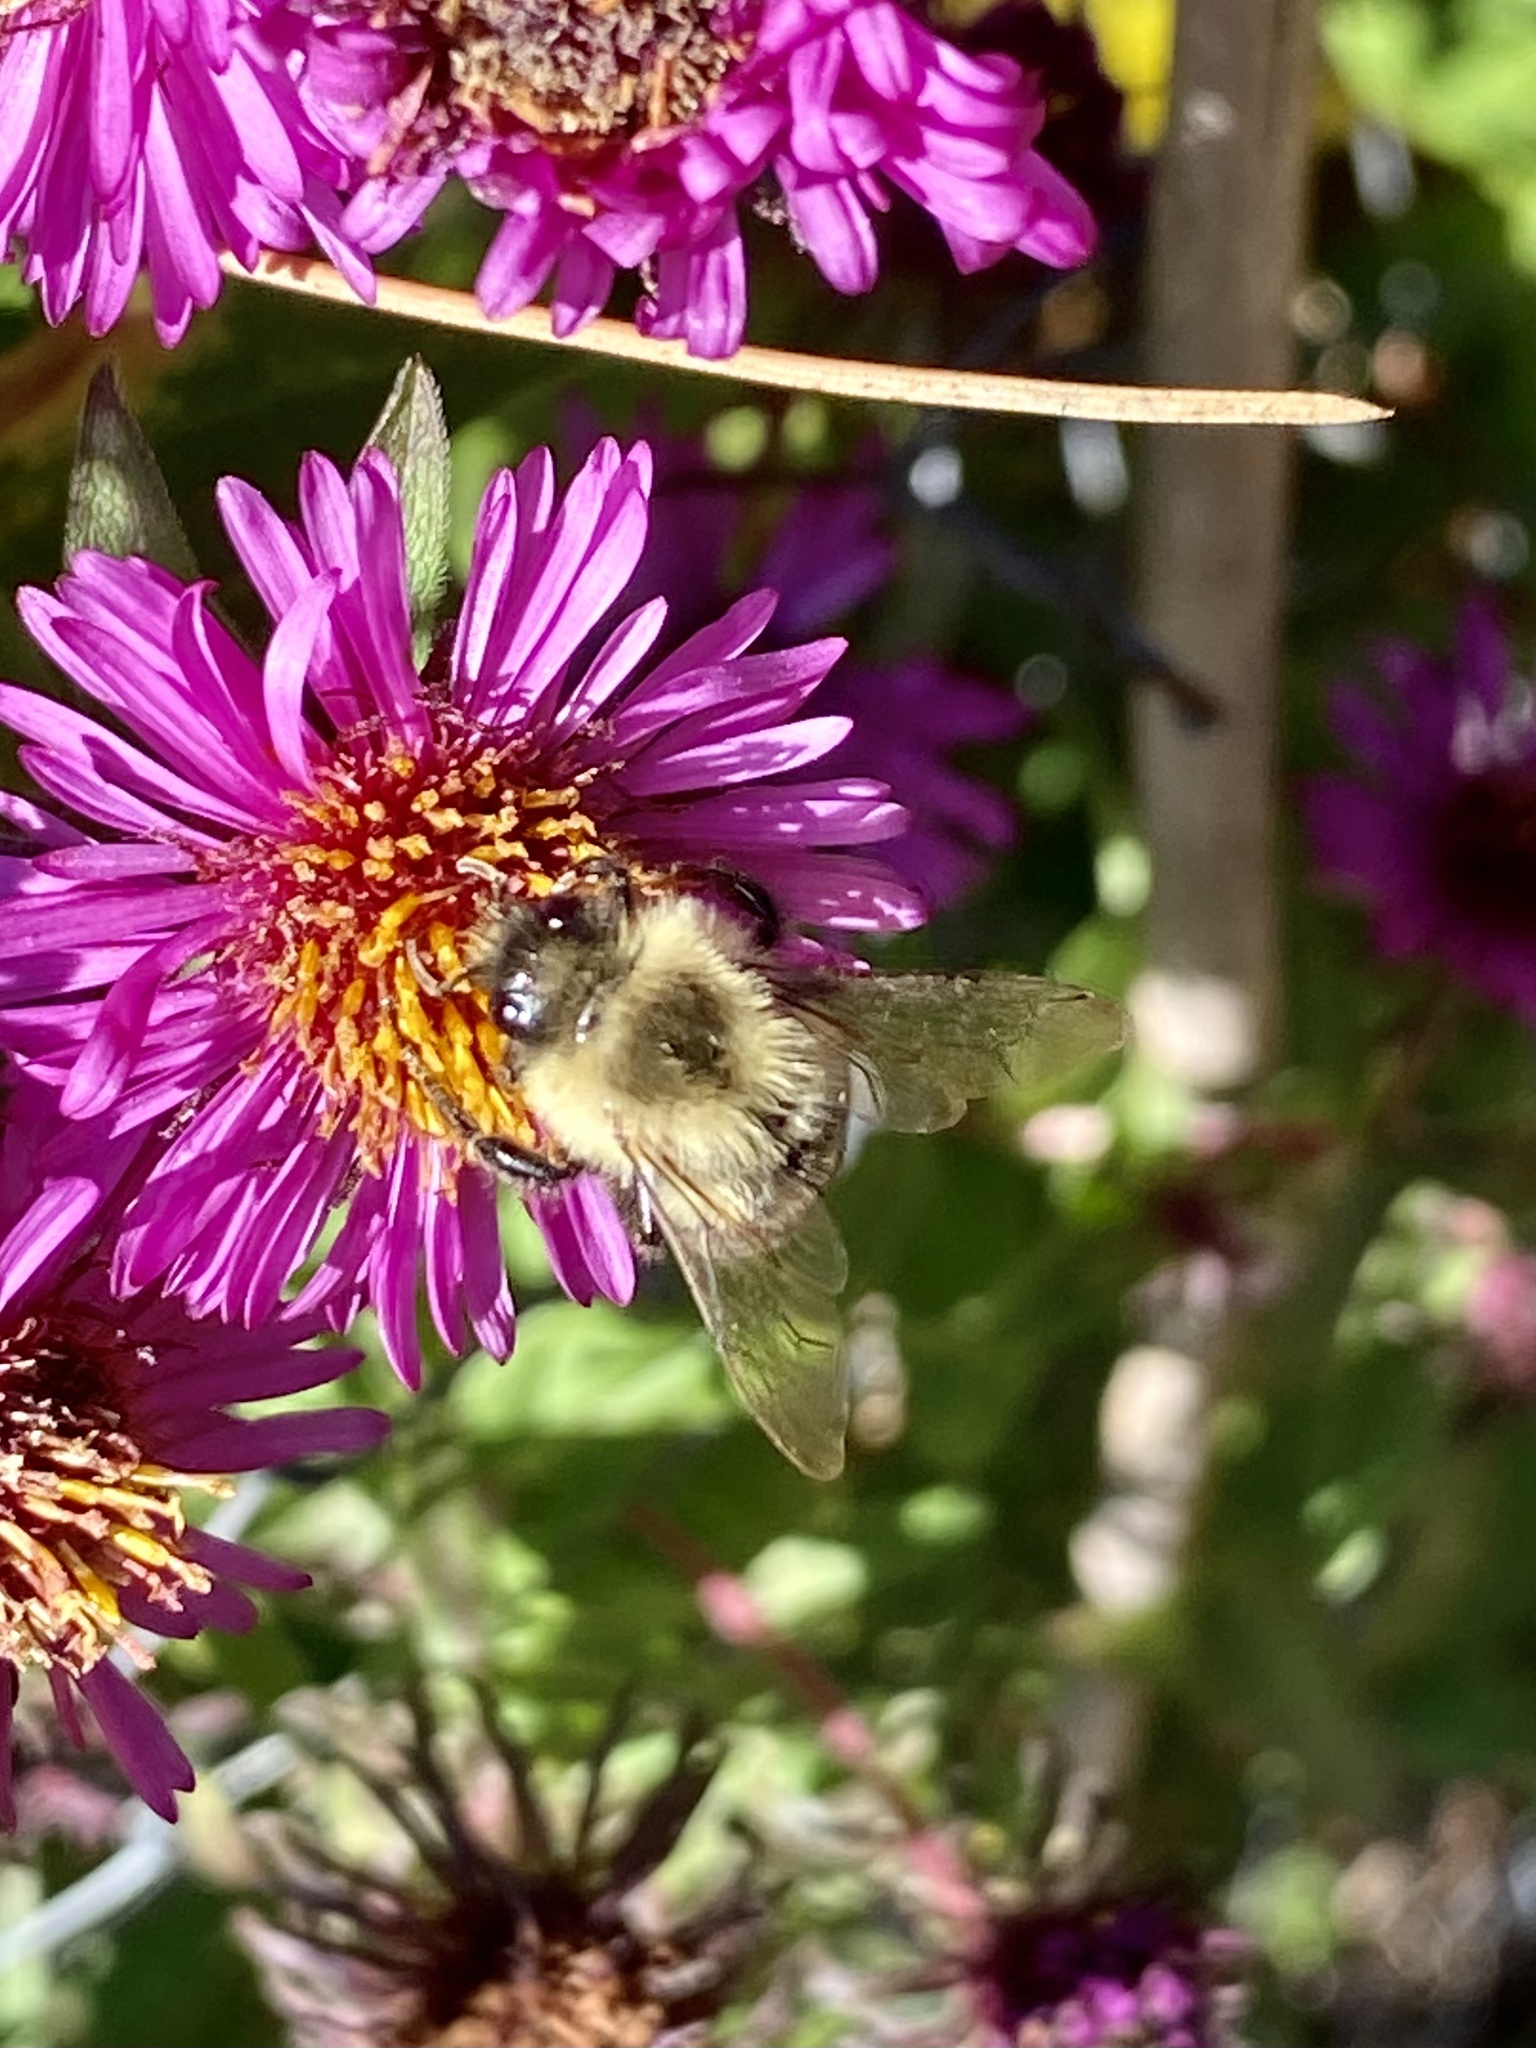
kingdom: Animalia
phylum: Arthropoda
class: Insecta
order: Hymenoptera
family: Apidae
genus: Bombus
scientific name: Bombus impatiens
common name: Common eastern bumble bee
